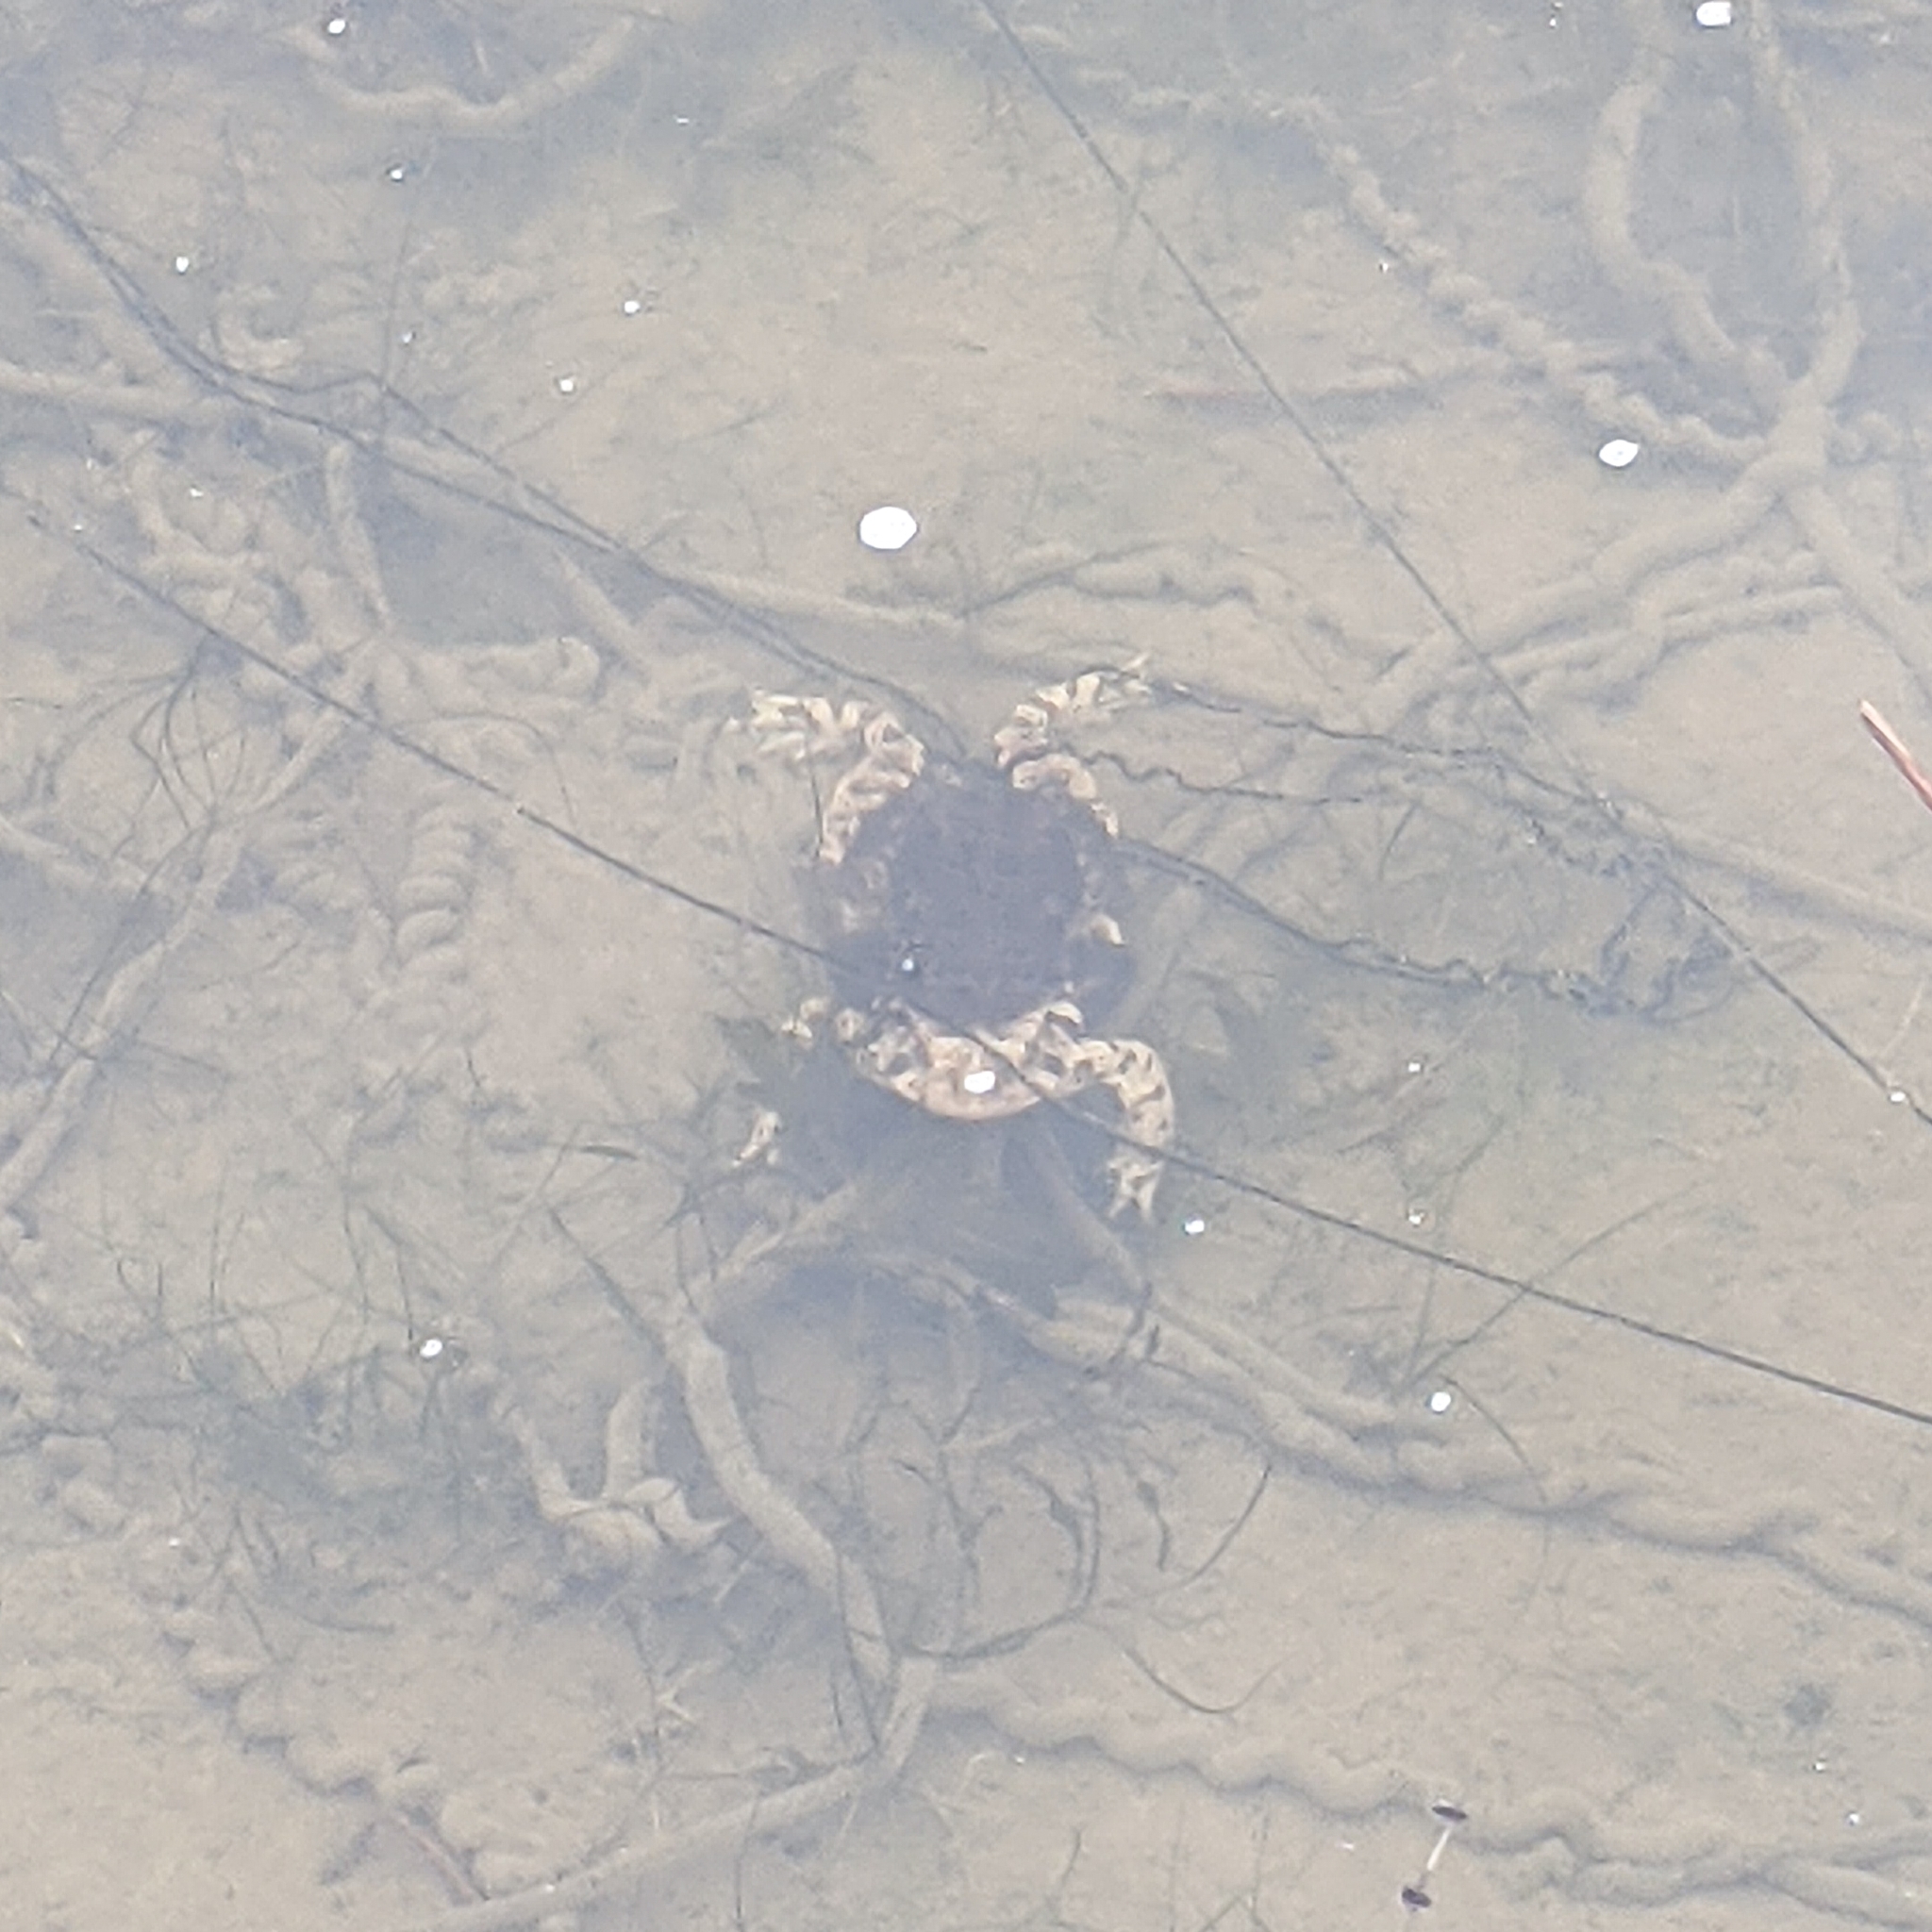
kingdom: Animalia
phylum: Chordata
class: Amphibia
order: Anura
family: Bufonidae
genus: Anaxyrus
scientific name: Anaxyrus americanus
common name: American toad
